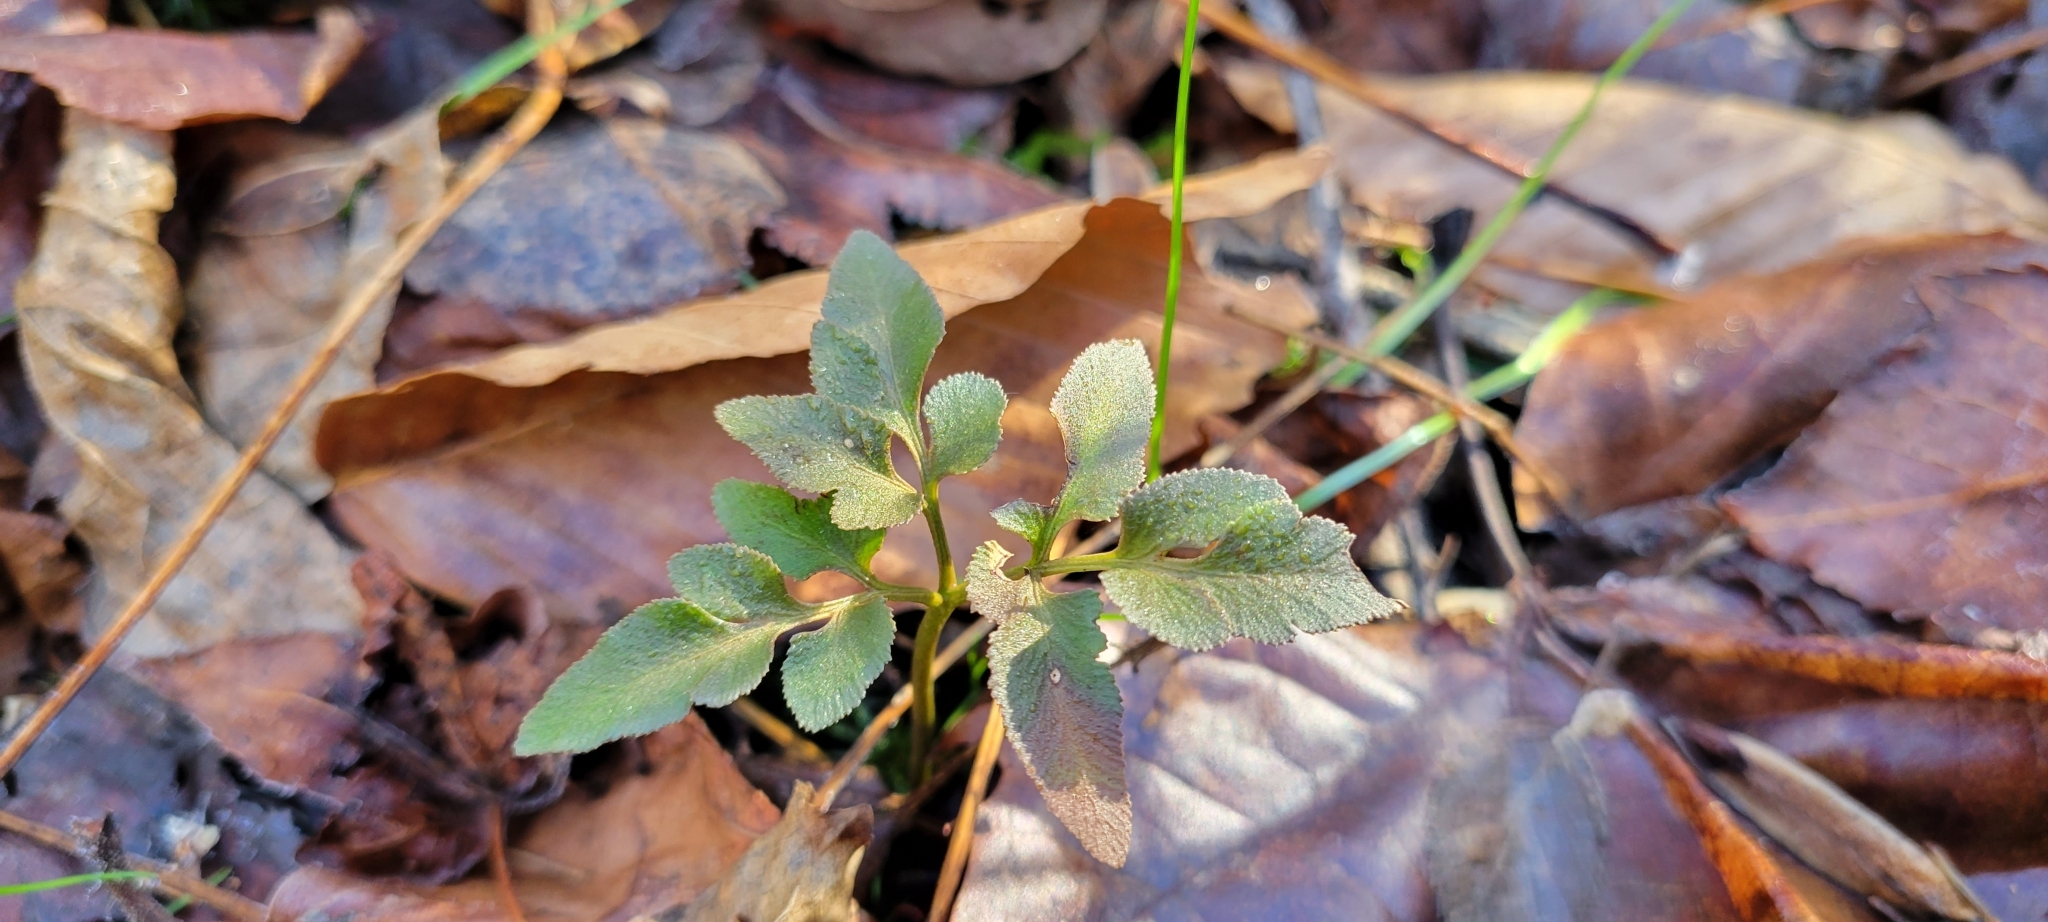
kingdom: Plantae
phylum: Tracheophyta
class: Polypodiopsida
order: Ophioglossales
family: Ophioglossaceae
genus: Sceptridium
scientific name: Sceptridium dissectum
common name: Cut-leaved grapefern
